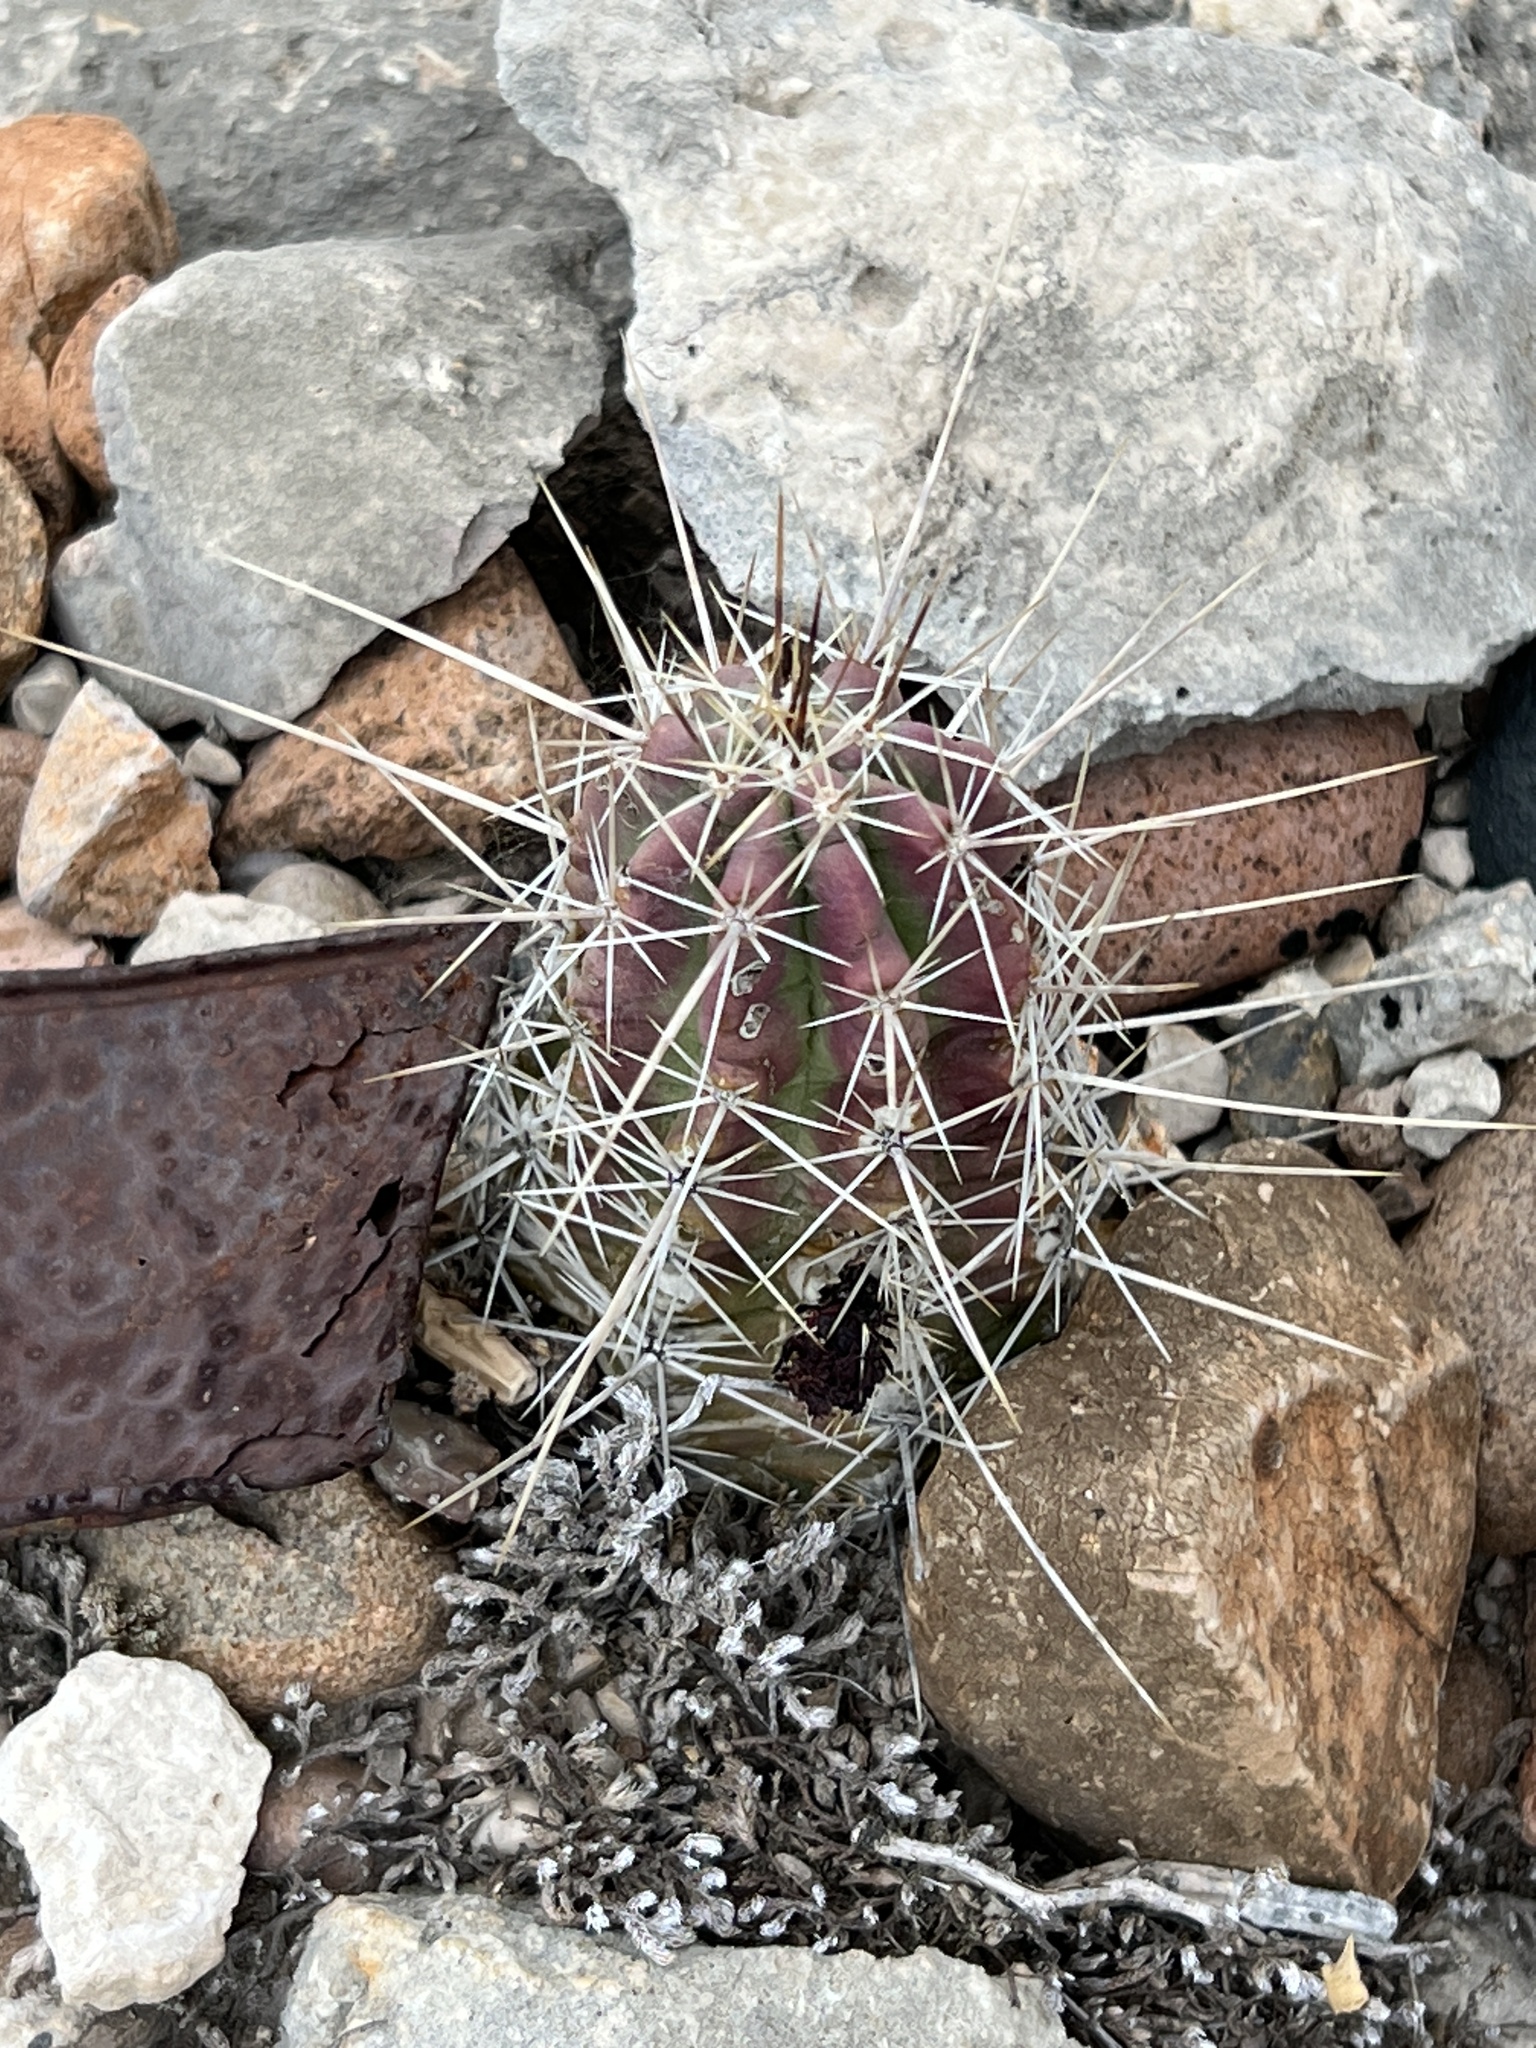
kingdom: Plantae
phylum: Tracheophyta
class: Magnoliopsida
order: Caryophyllales
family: Cactaceae
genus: Echinocereus
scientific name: Echinocereus enneacanthus
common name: Pitaya
